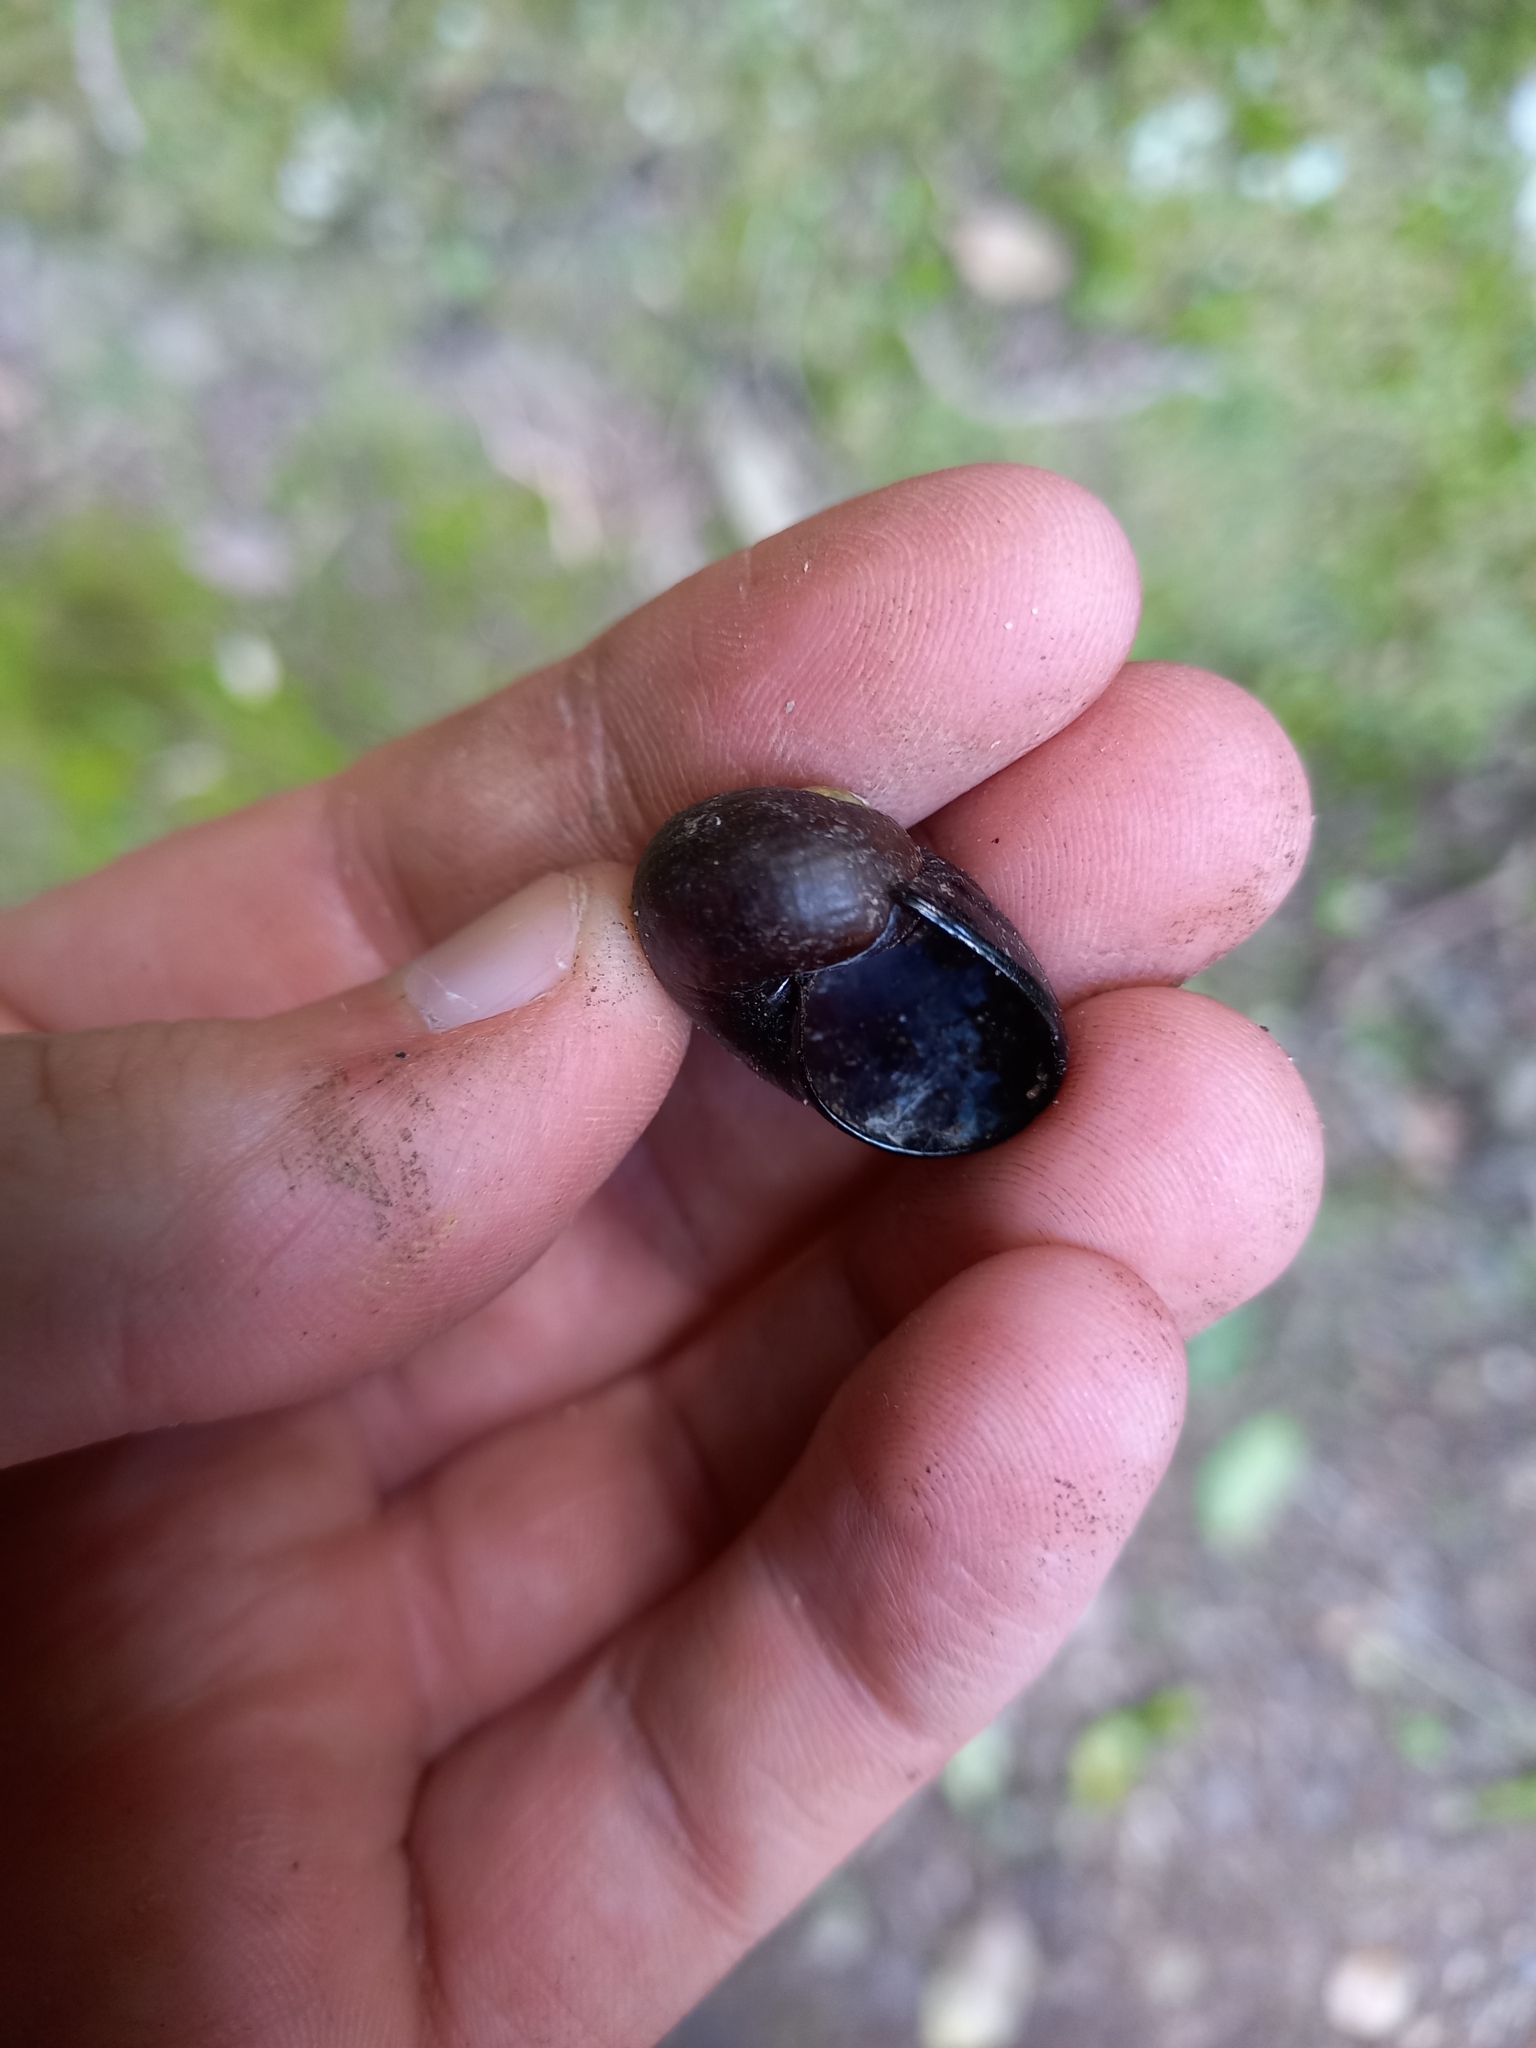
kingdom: Animalia
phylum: Mollusca
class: Gastropoda
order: Stylommatophora
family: Rhytididae
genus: Wainuia
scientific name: Wainuia urnula
